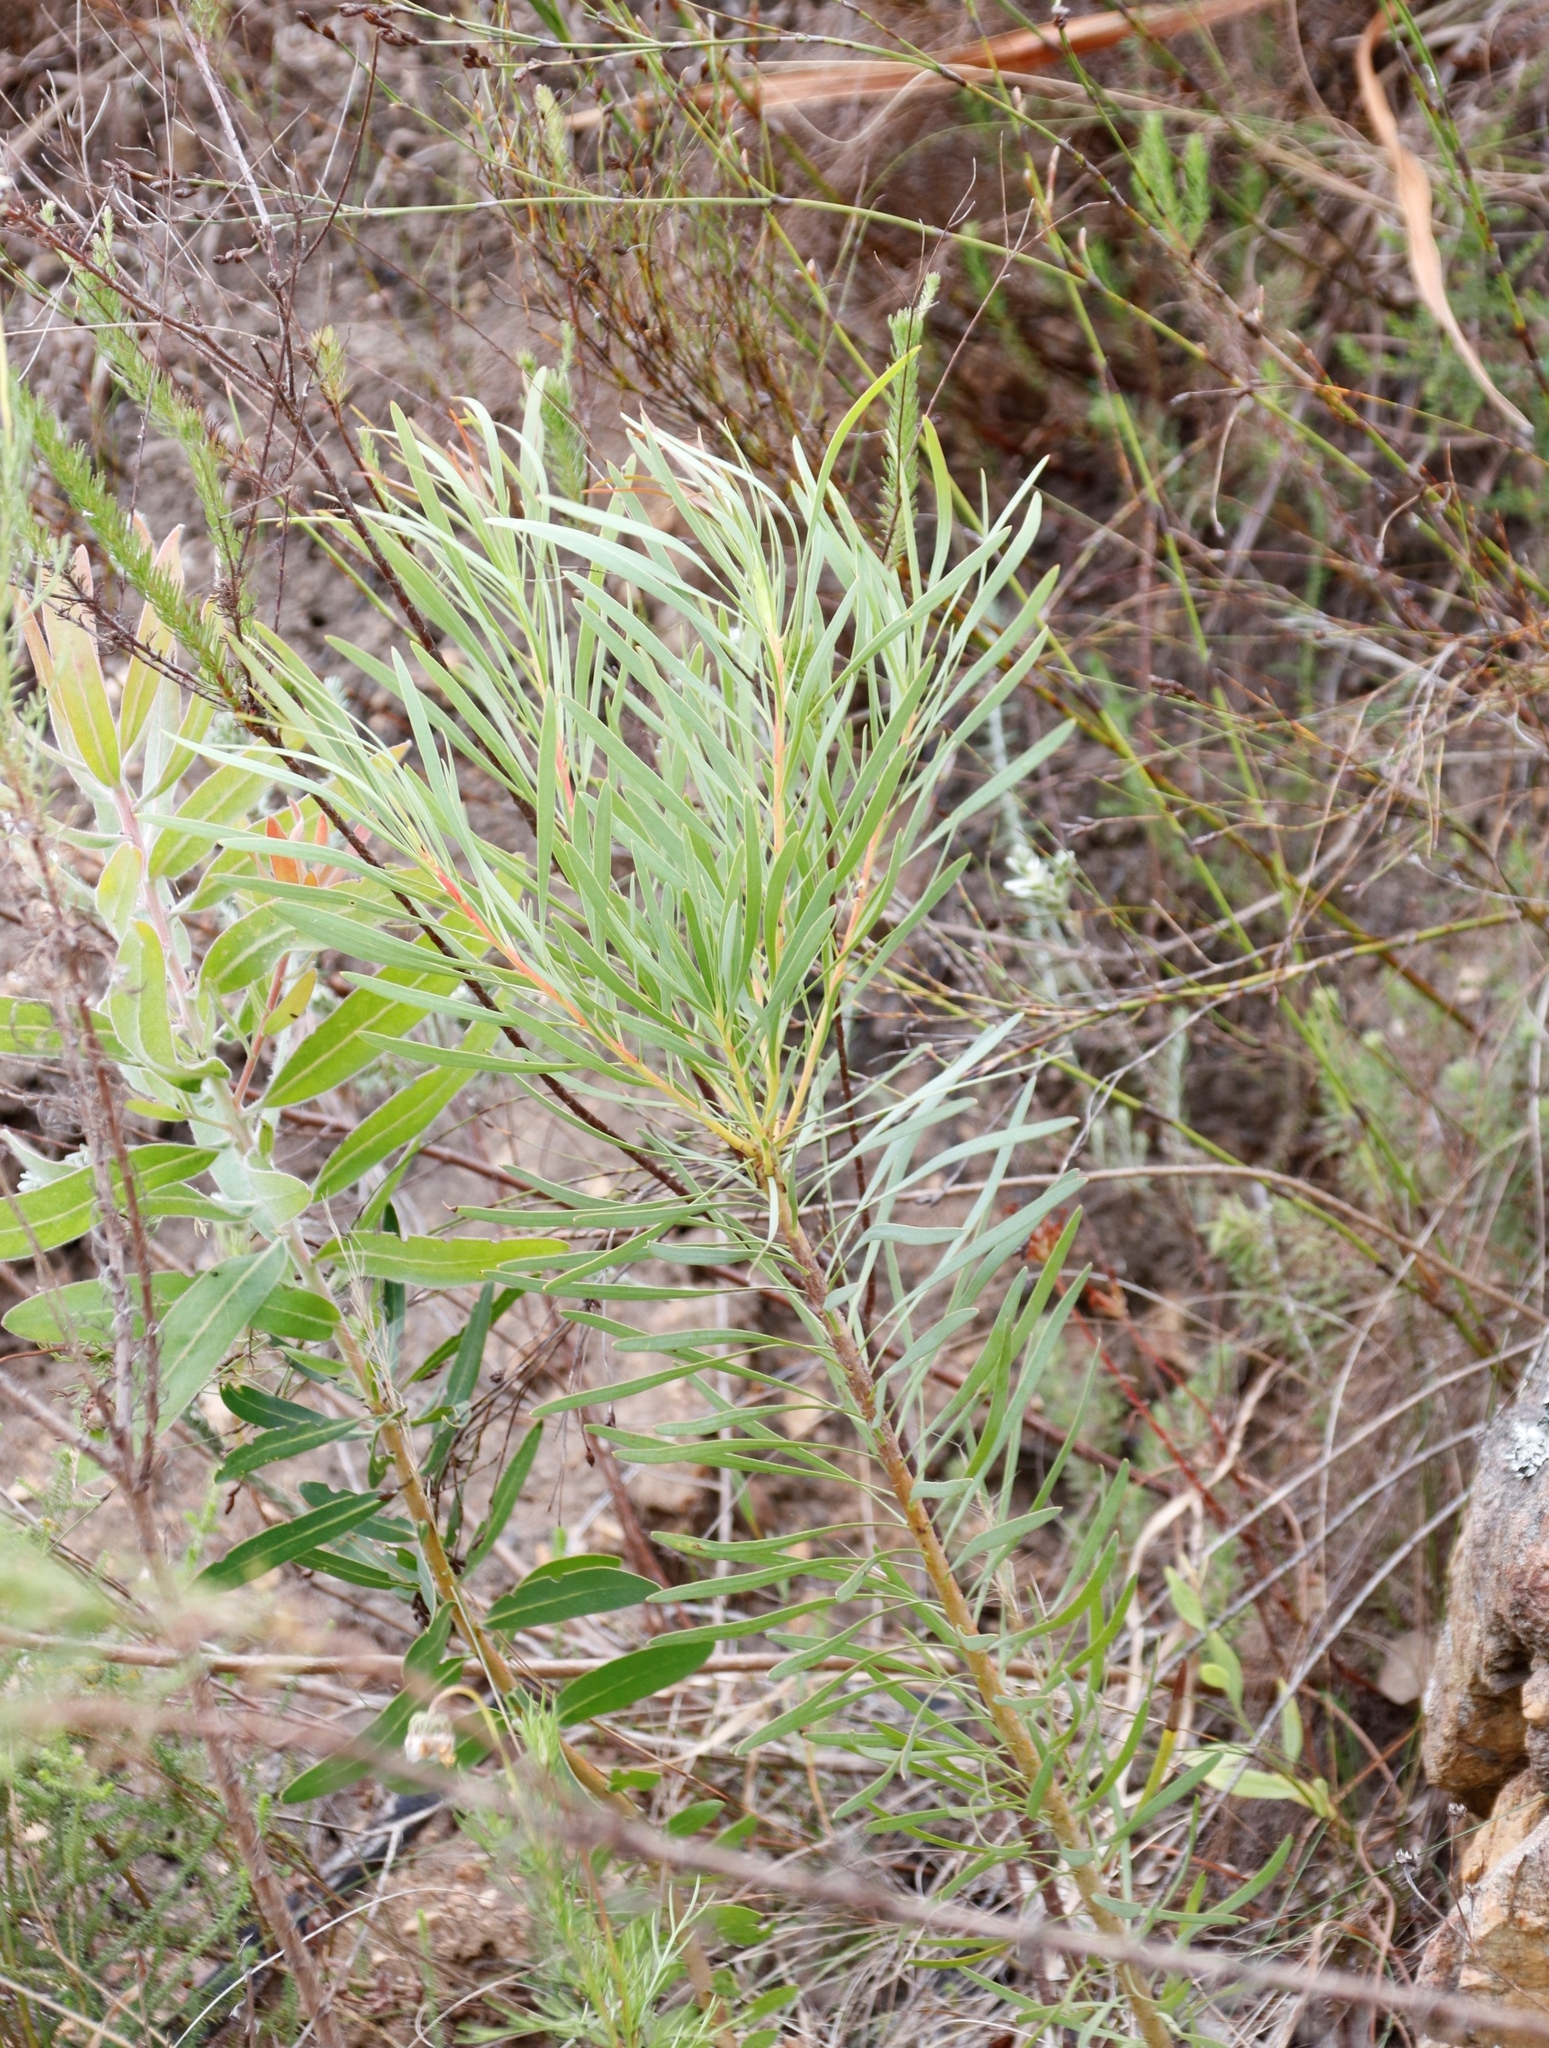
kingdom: Plantae
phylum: Tracheophyta
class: Magnoliopsida
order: Proteales
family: Proteaceae
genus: Protea
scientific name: Protea repens
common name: Sugarbush
